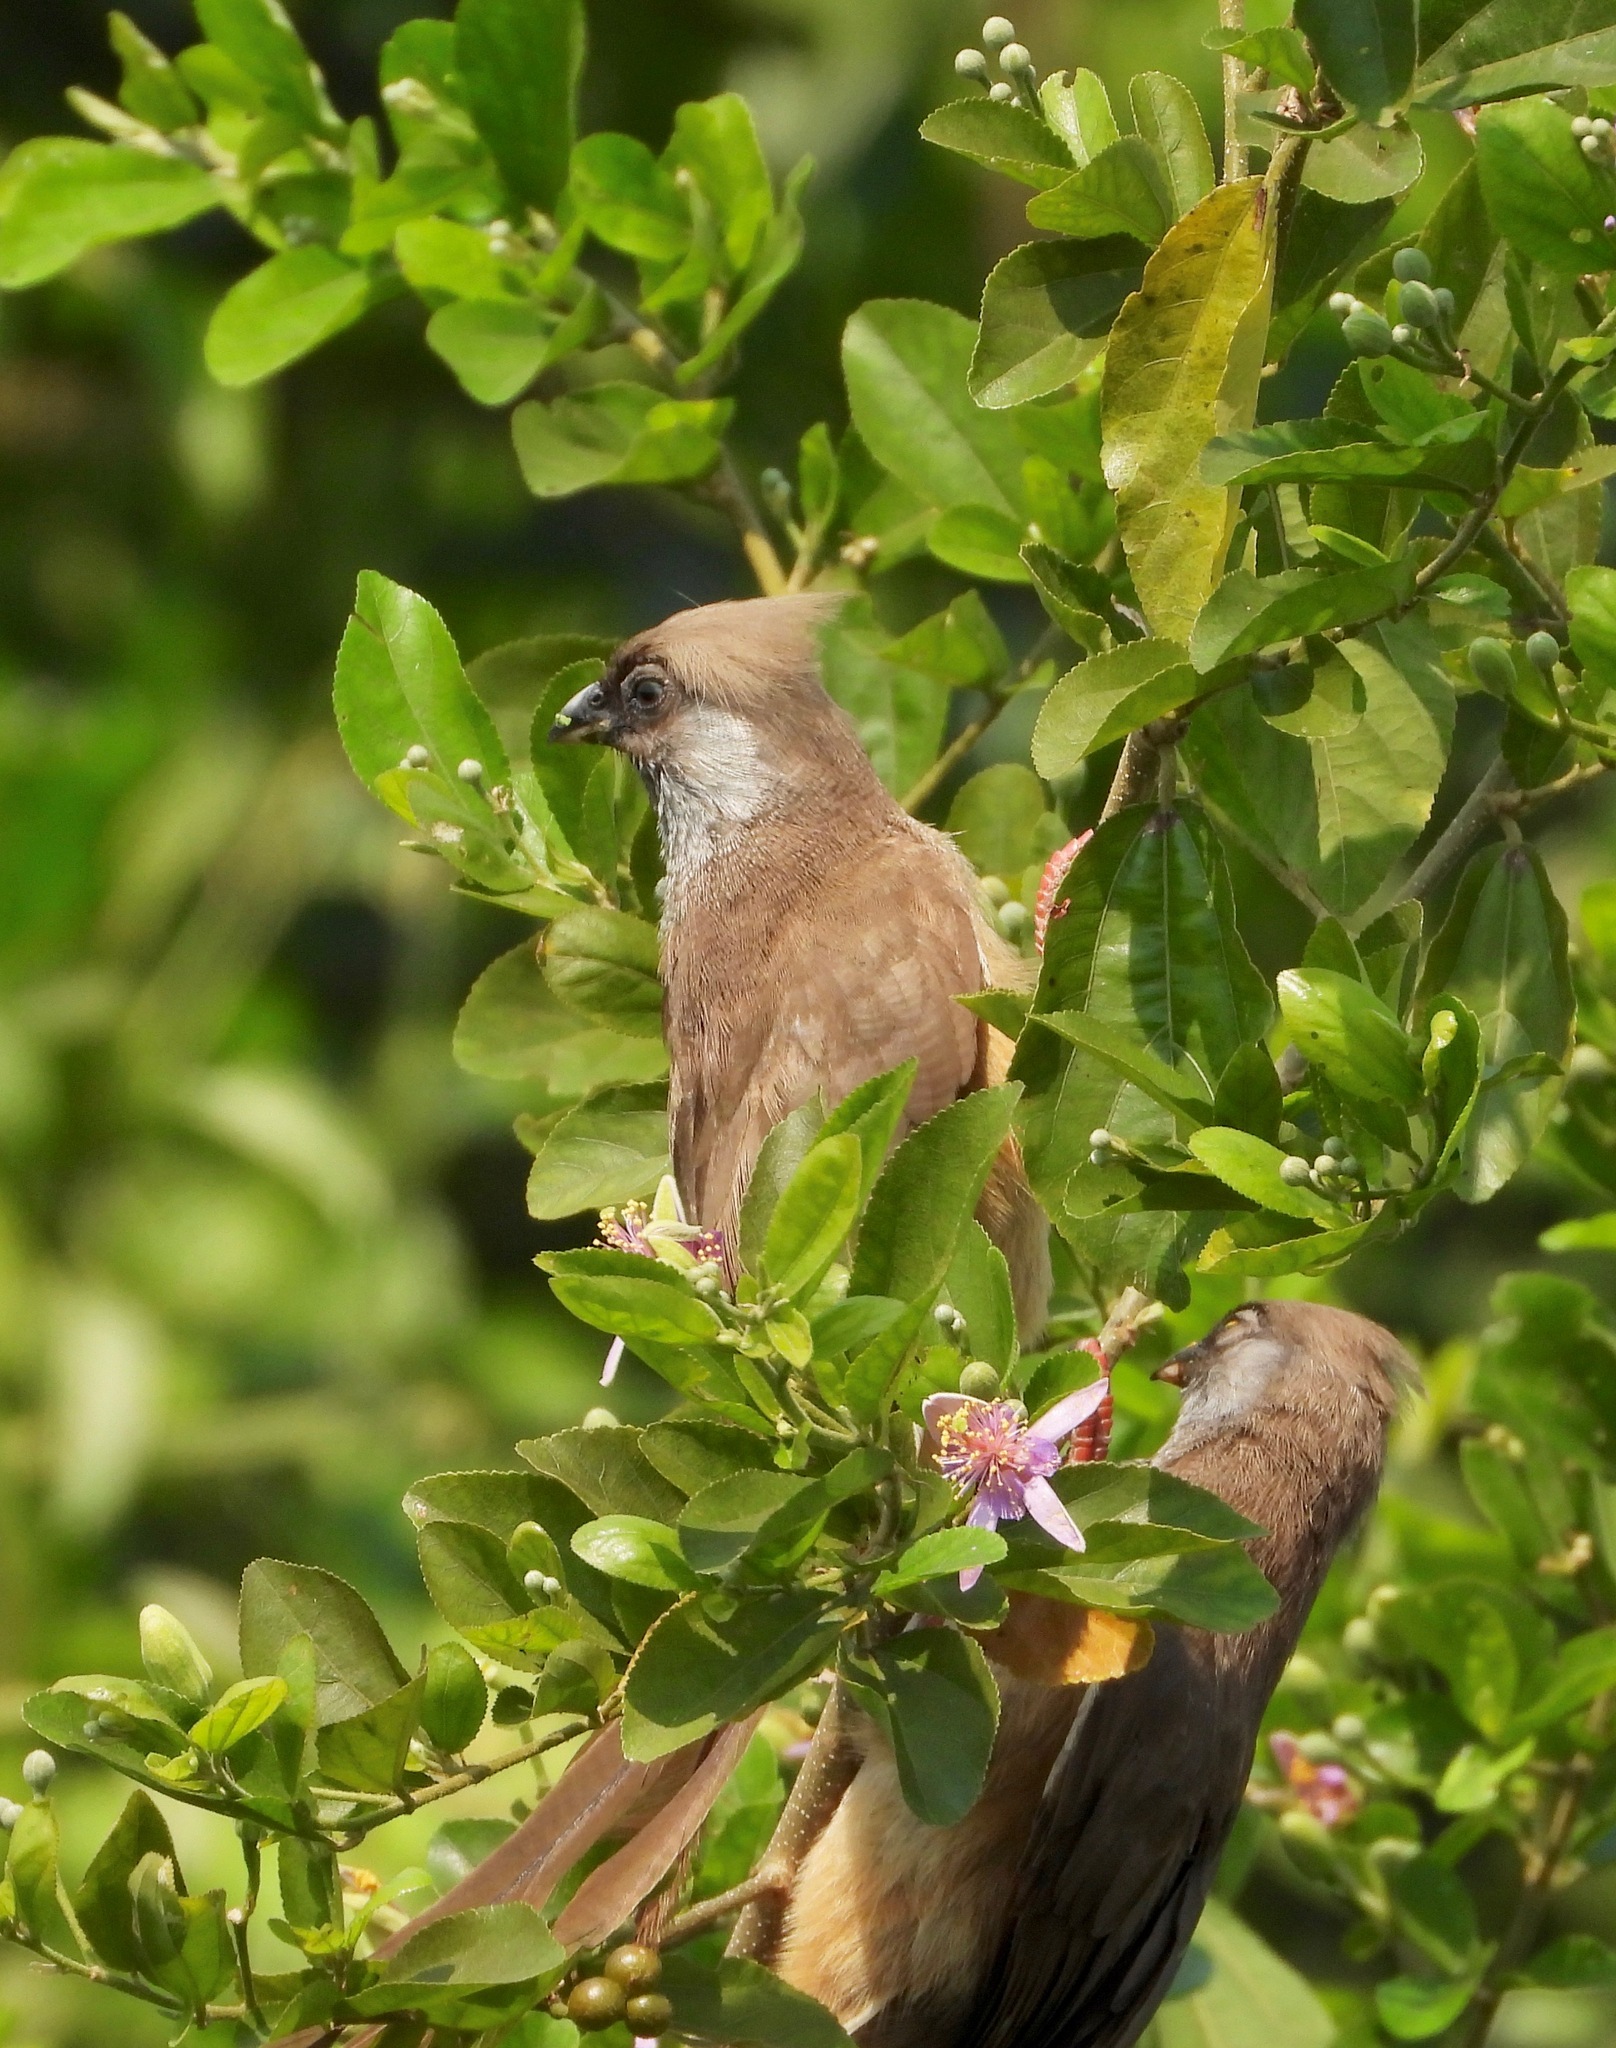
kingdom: Animalia
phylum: Chordata
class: Aves
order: Coliiformes
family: Coliidae
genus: Colius
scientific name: Colius striatus
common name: Speckled mousebird
